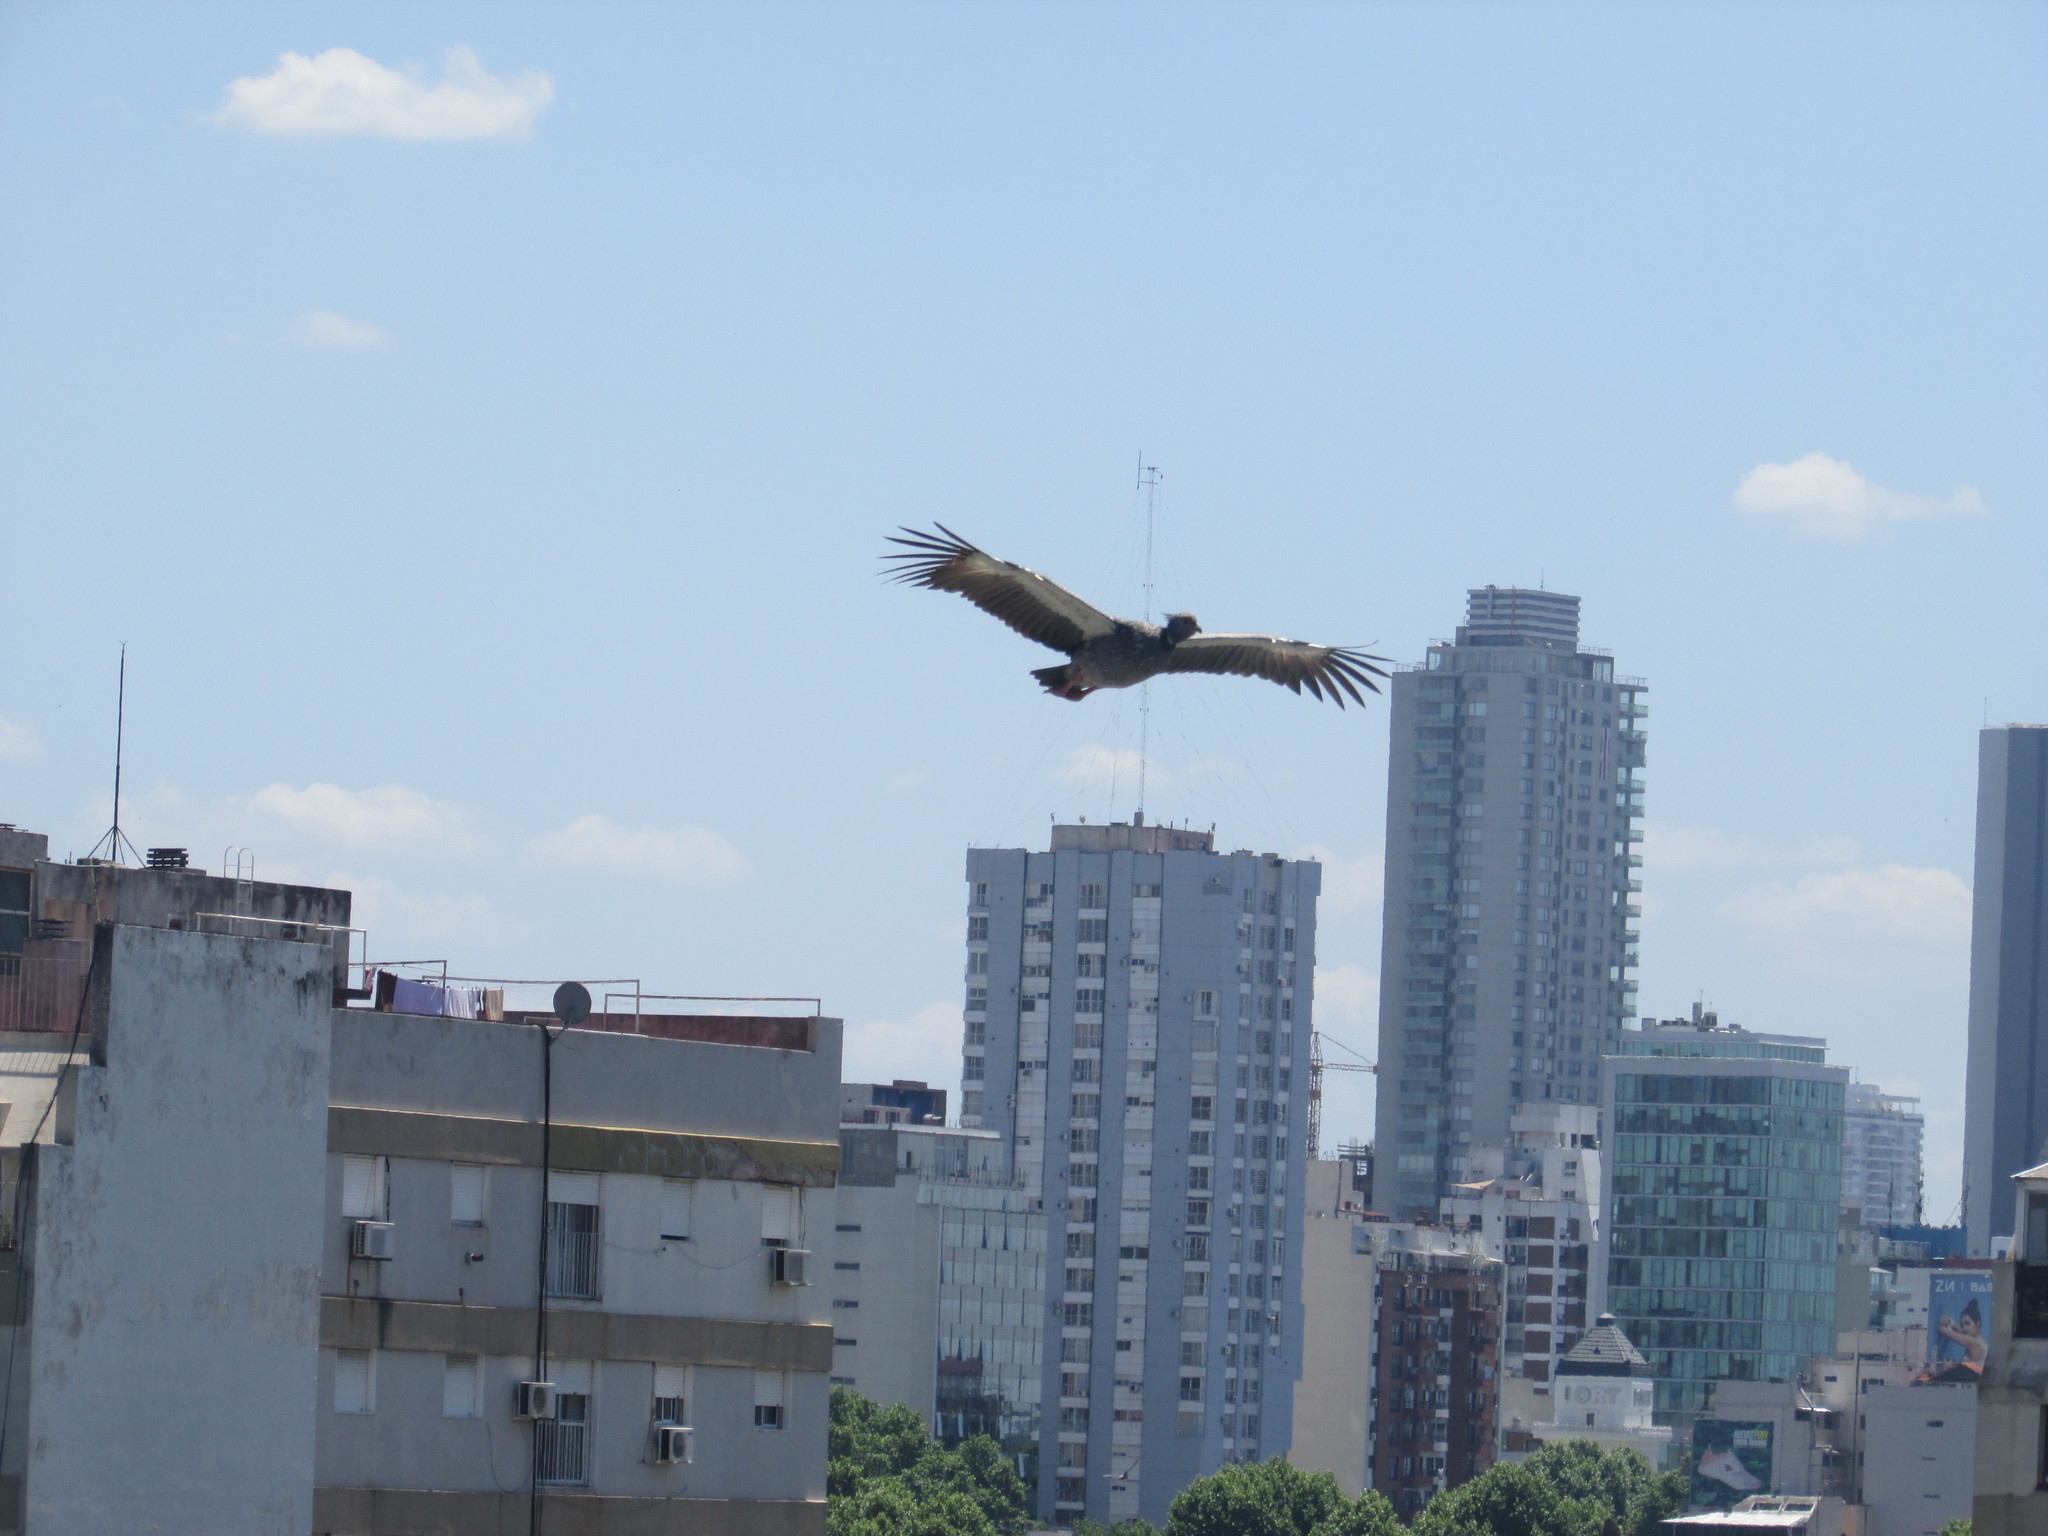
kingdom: Animalia
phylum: Chordata
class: Aves
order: Anseriformes
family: Anhimidae
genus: Chauna
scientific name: Chauna torquata
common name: Southern screamer
